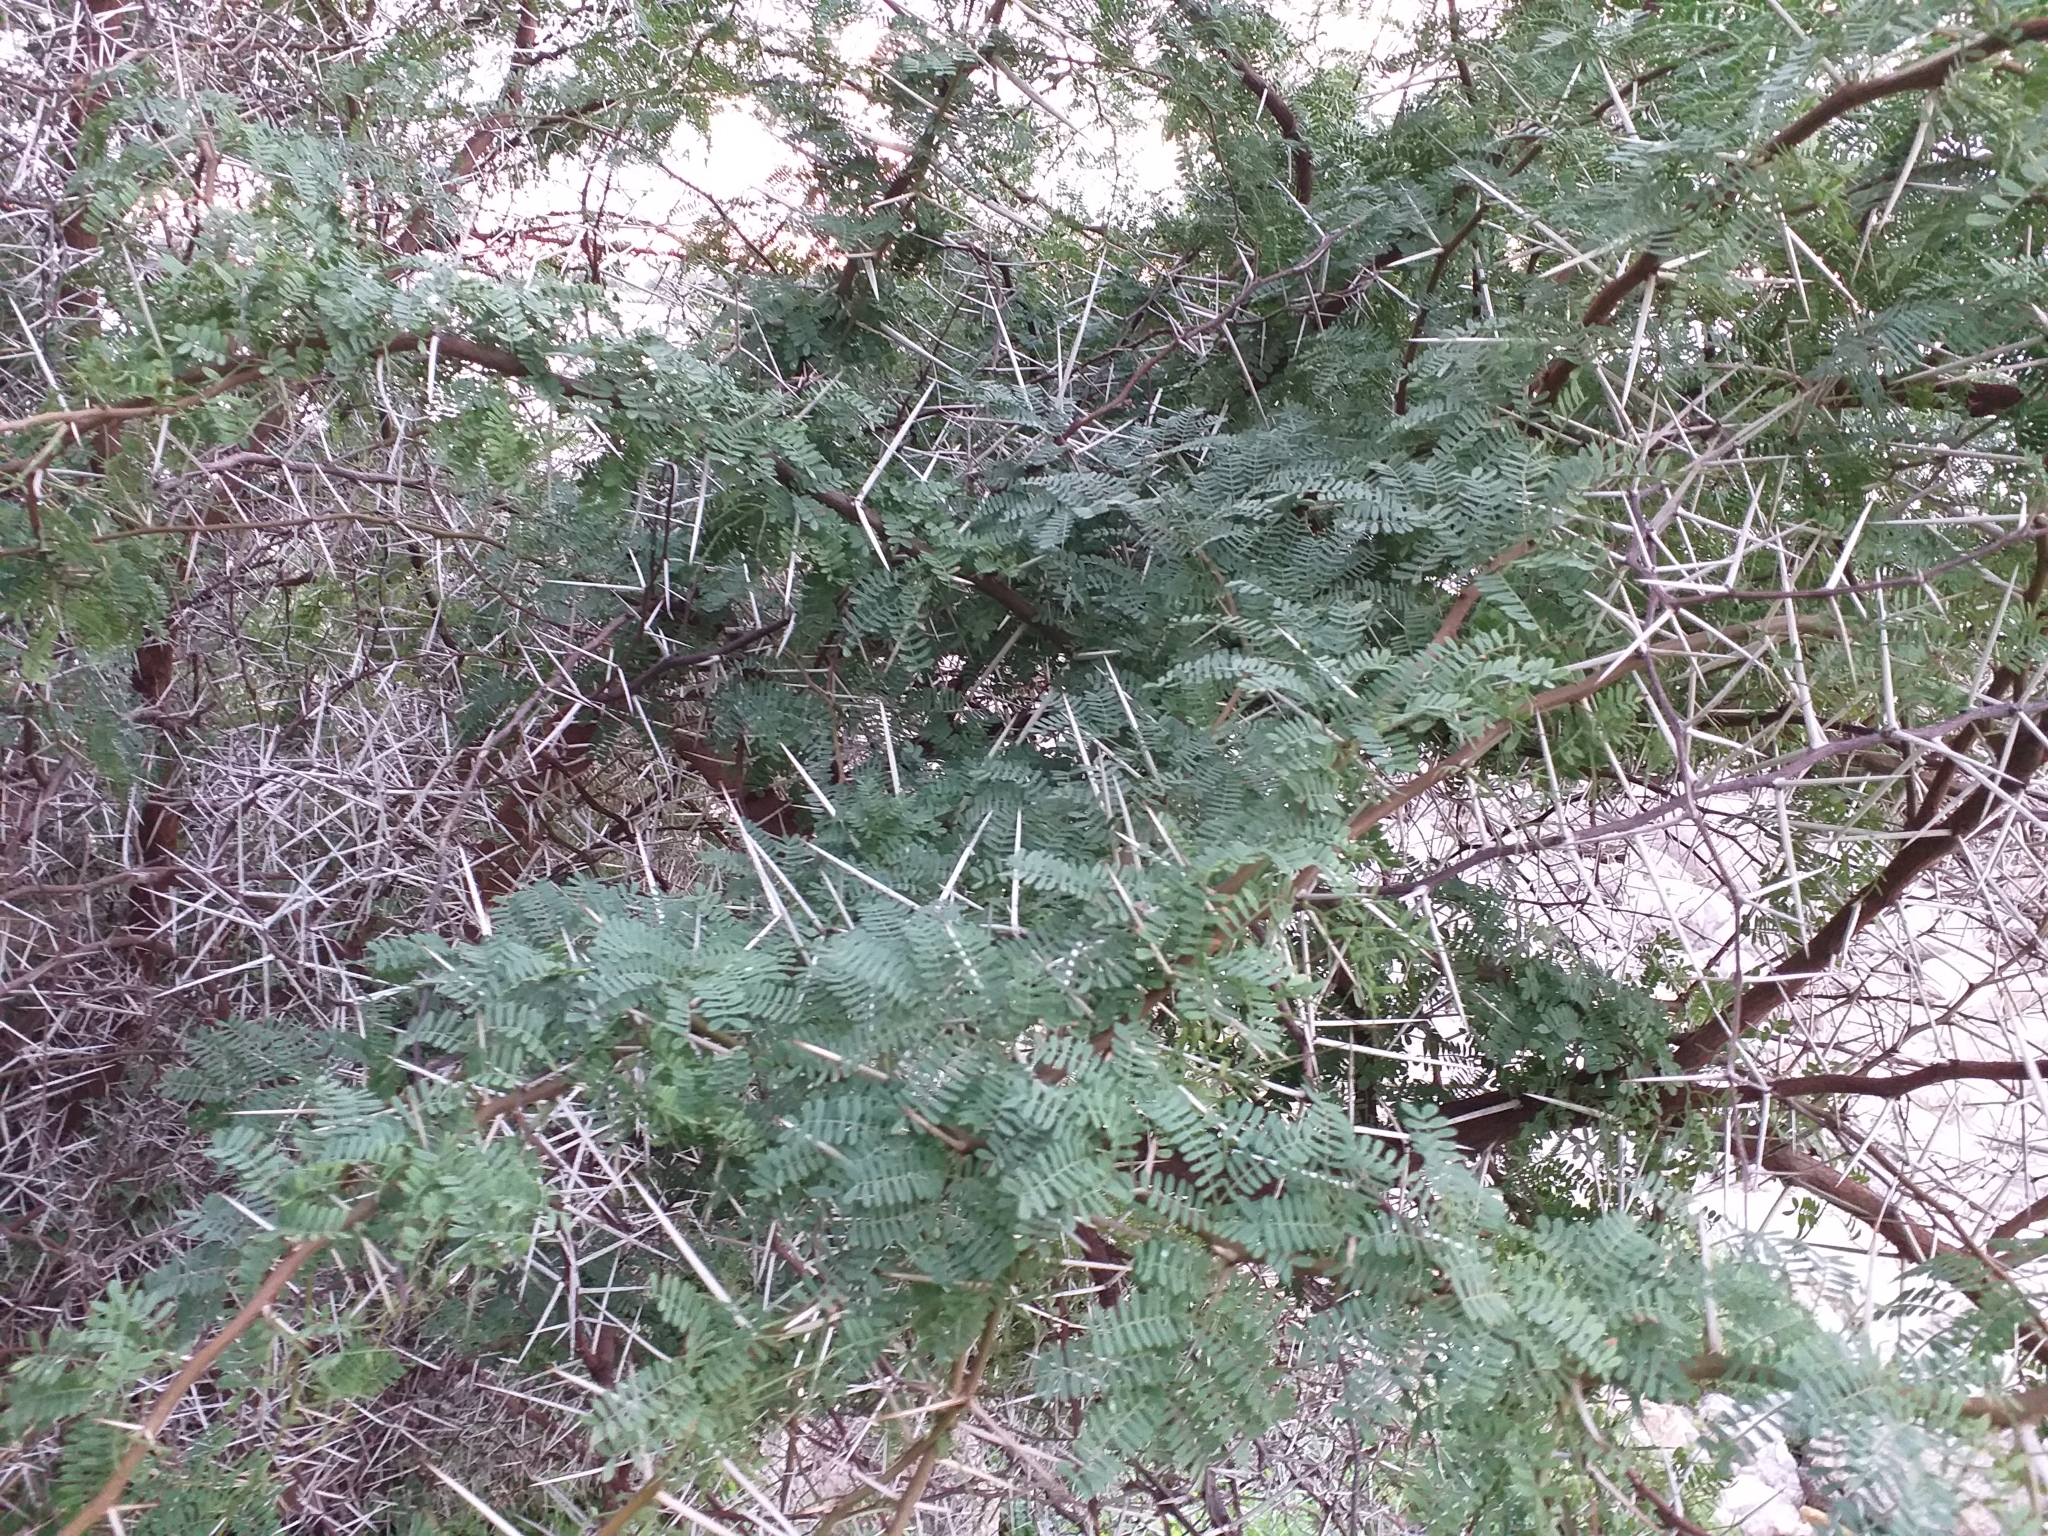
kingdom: Plantae
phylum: Tracheophyta
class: Magnoliopsida
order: Fabales
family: Fabaceae
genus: Vachellia
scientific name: Vachellia karroo
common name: Sweet thorn
